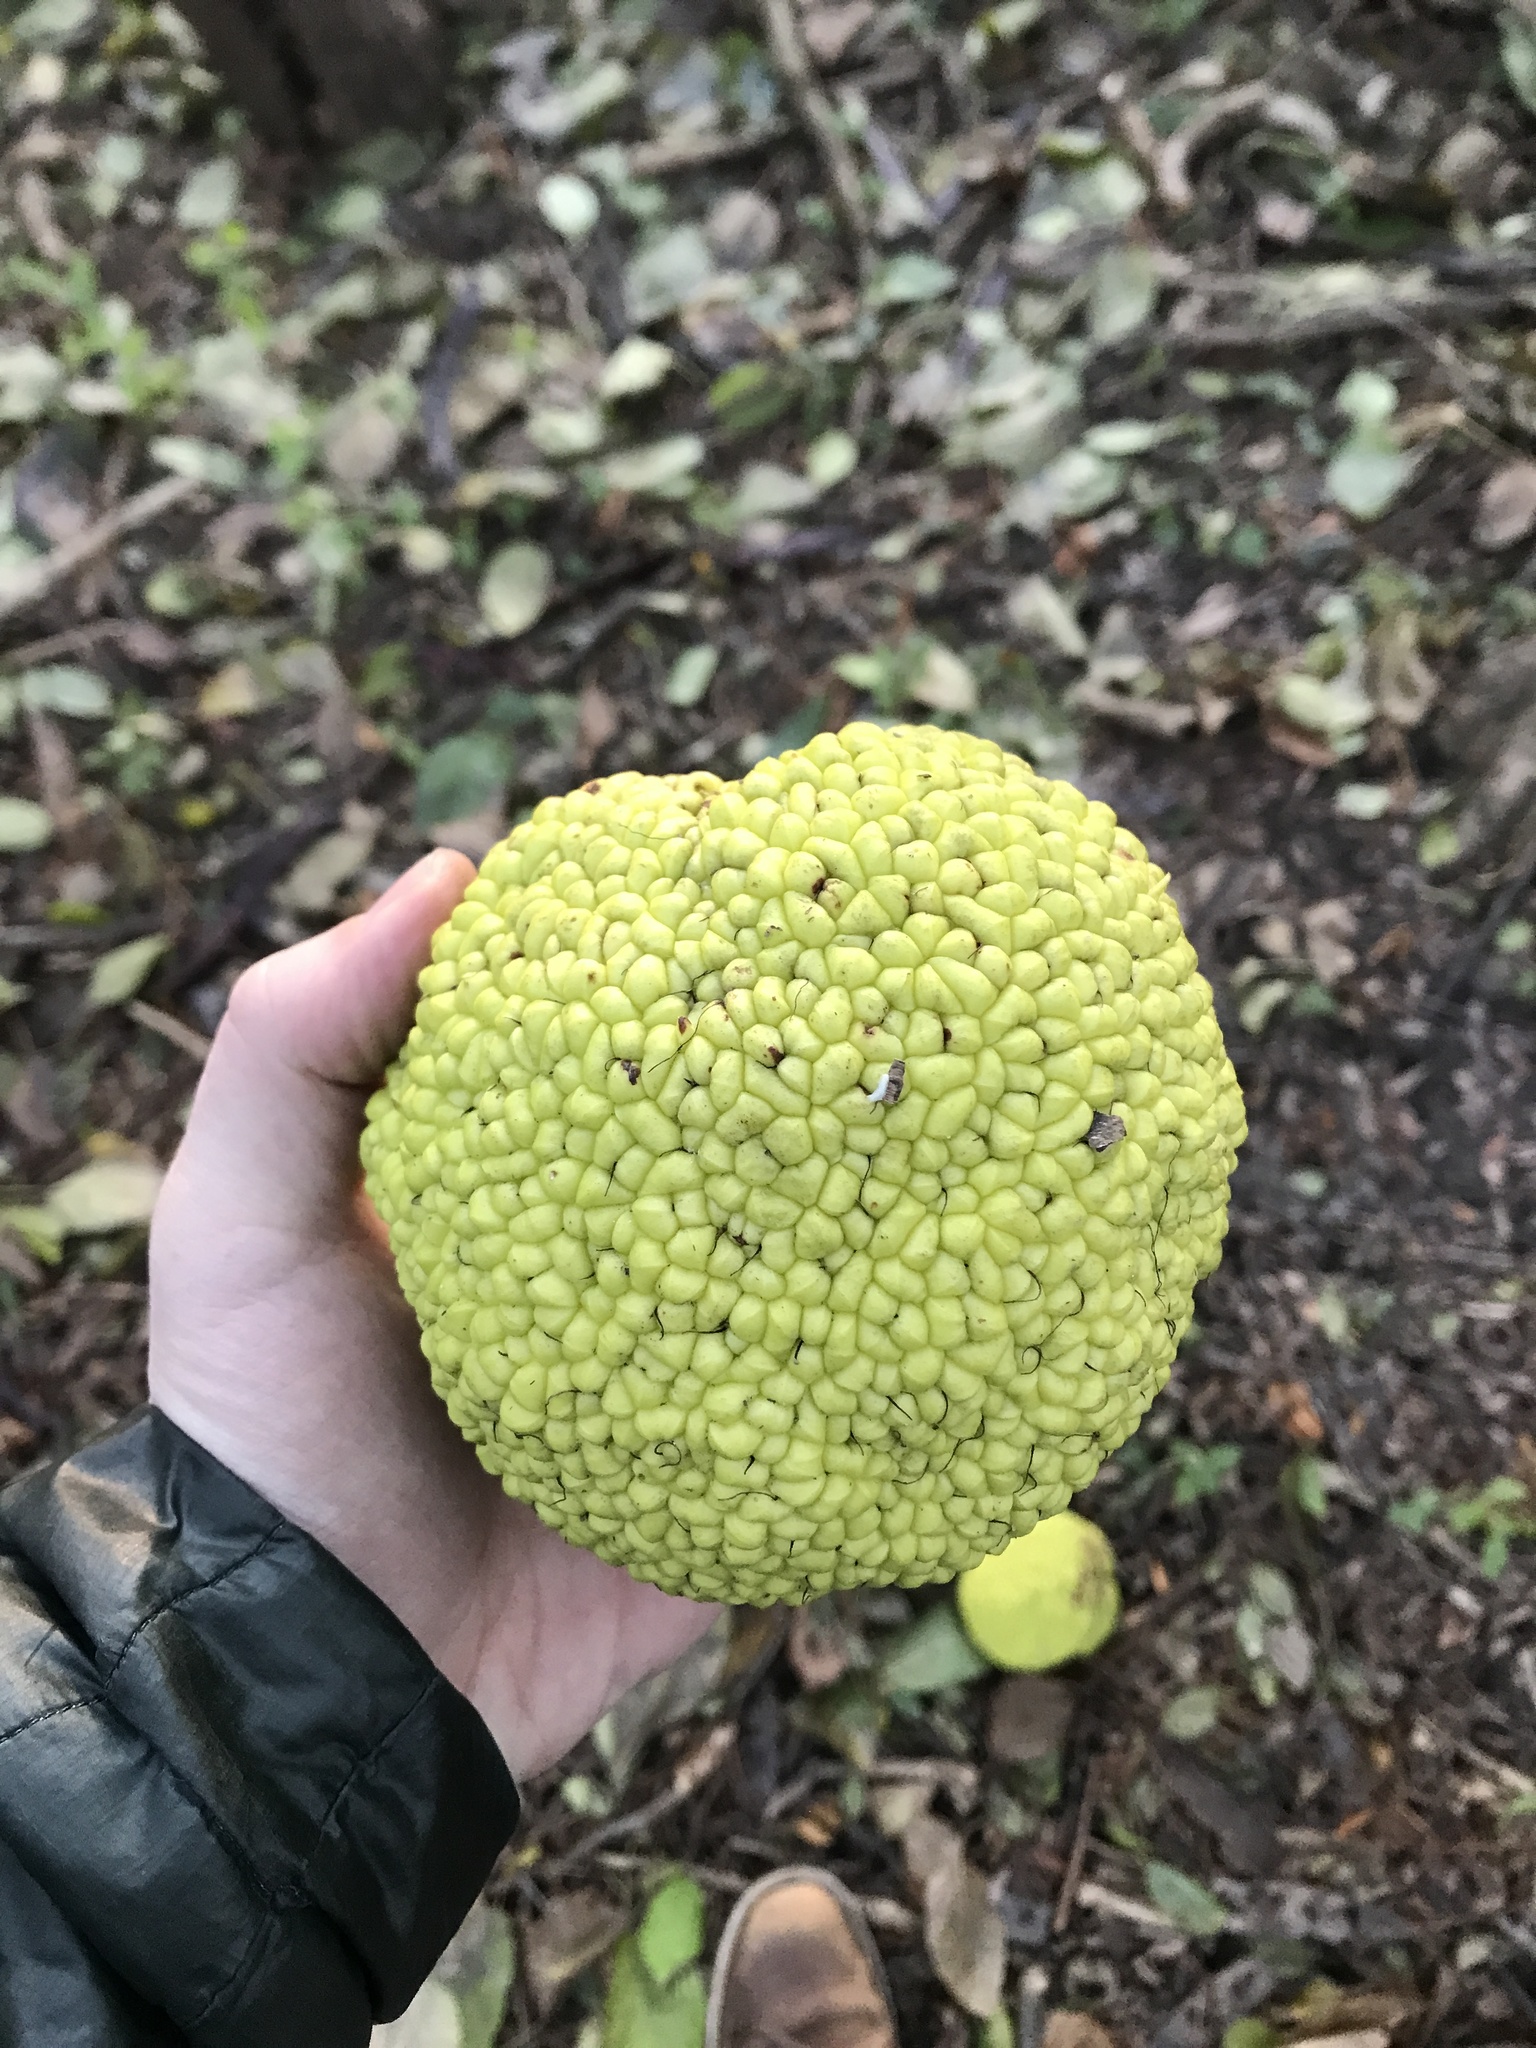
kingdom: Plantae
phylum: Tracheophyta
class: Magnoliopsida
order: Rosales
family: Moraceae
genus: Maclura
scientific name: Maclura pomifera
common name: Osage-orange
